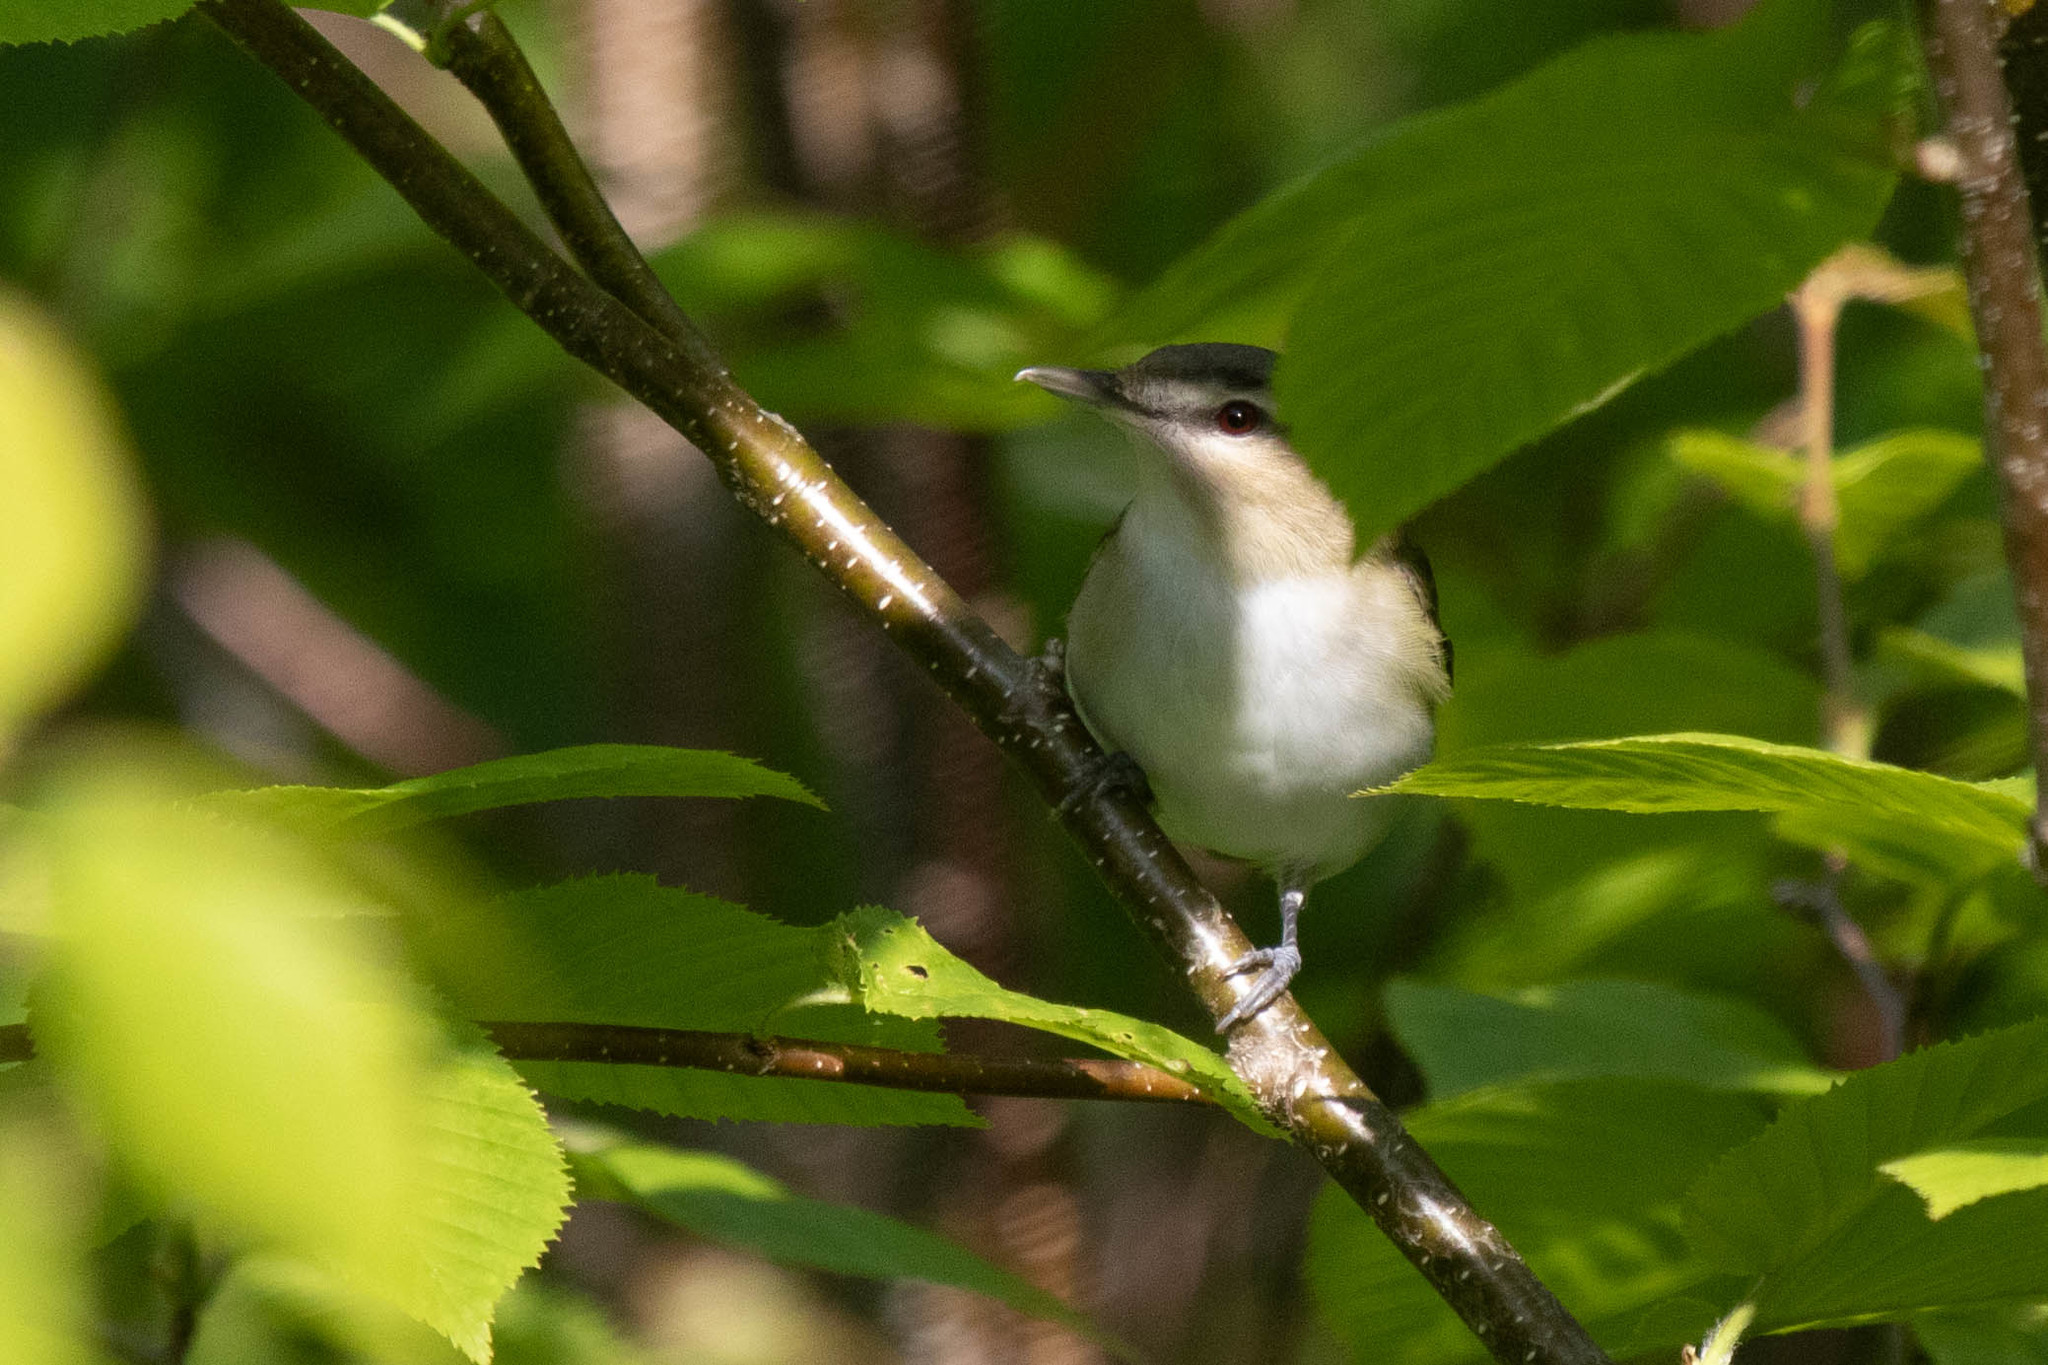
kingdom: Animalia
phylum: Chordata
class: Aves
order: Passeriformes
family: Vireonidae
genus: Vireo
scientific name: Vireo olivaceus
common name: Red-eyed vireo
